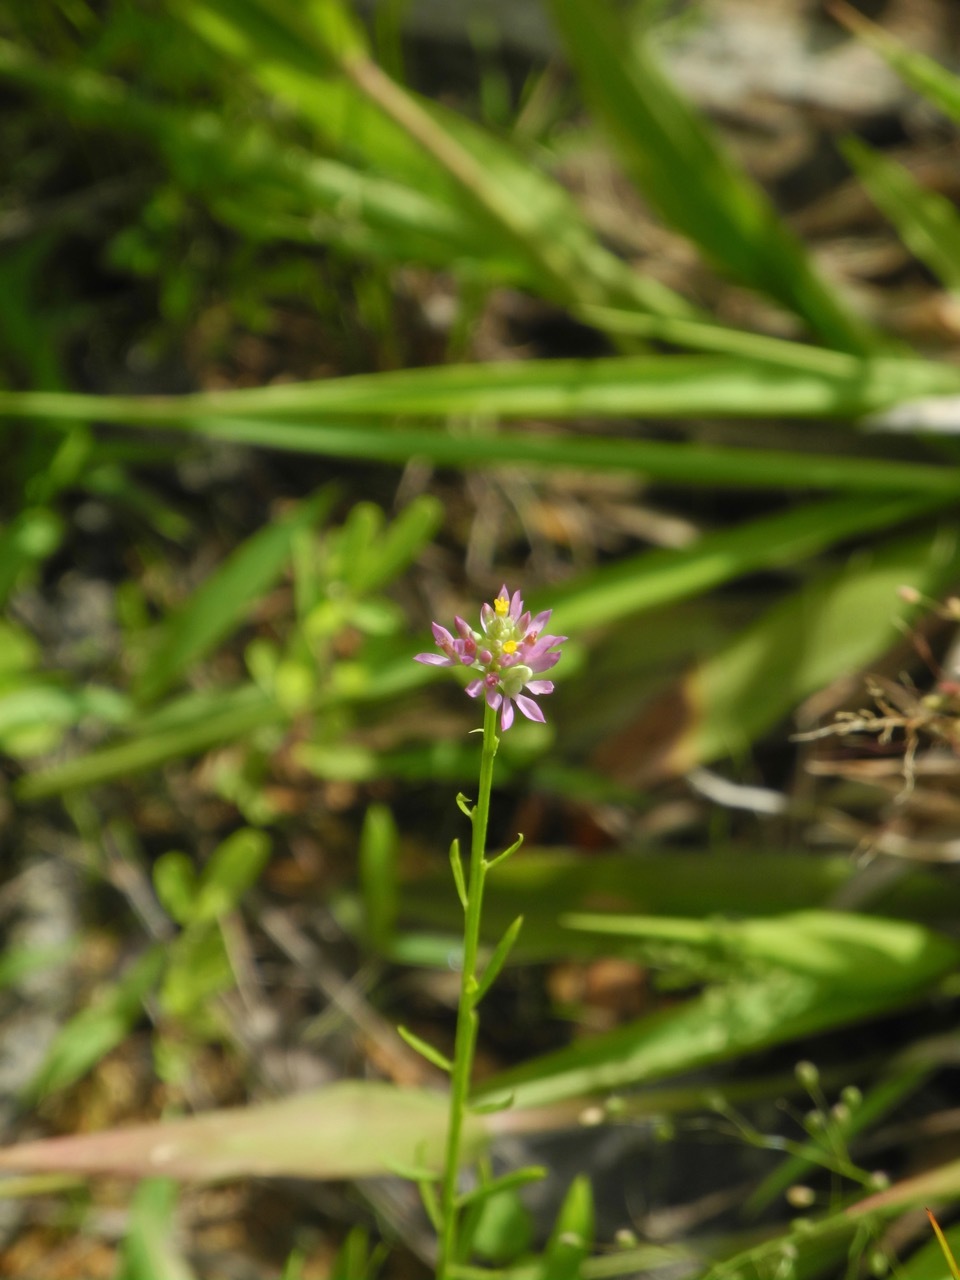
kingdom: Plantae
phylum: Tracheophyta
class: Magnoliopsida
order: Fabales
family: Polygalaceae
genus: Polygala
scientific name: Polygala curtissii
